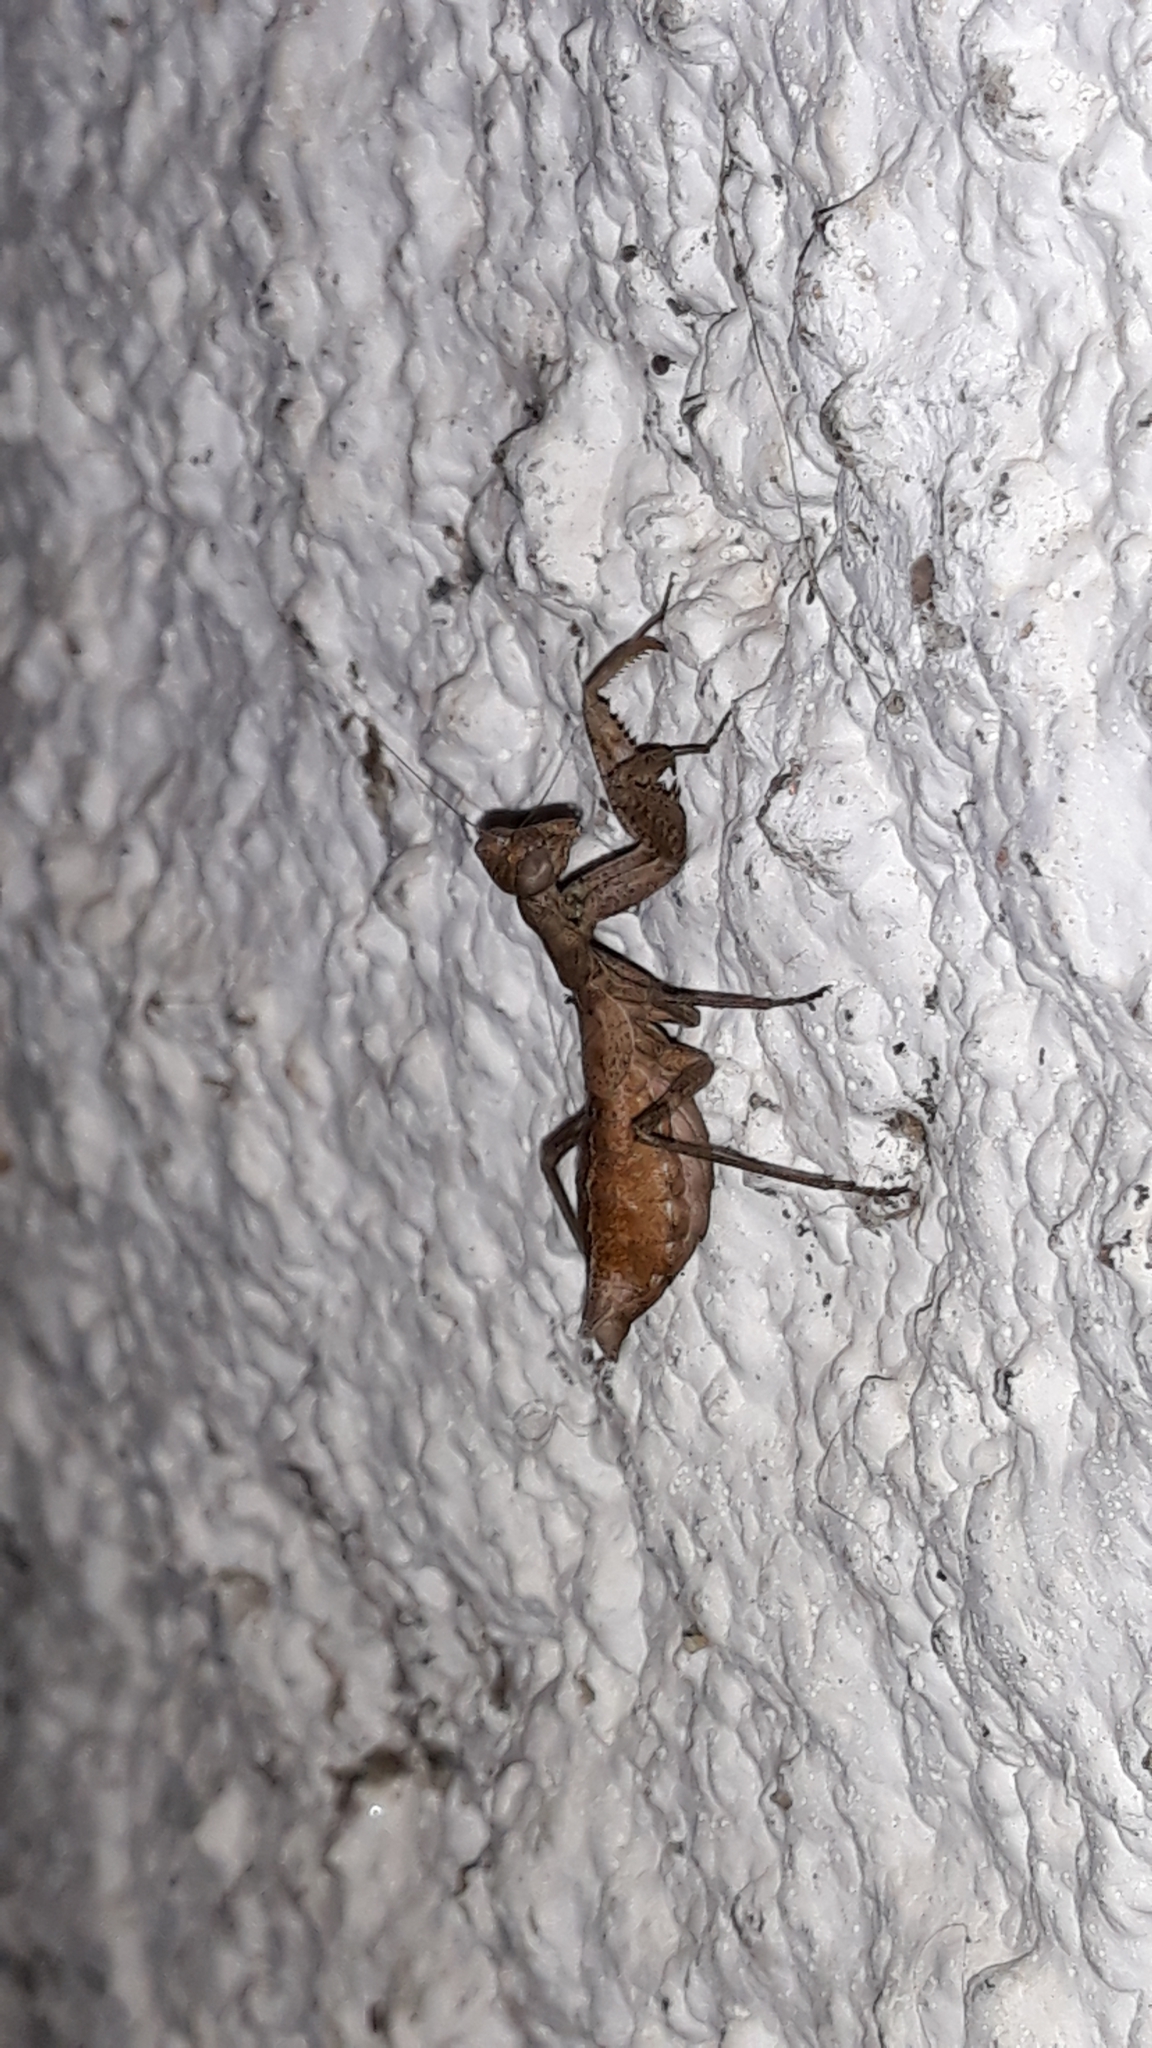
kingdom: Animalia
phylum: Arthropoda
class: Insecta
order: Mantodea
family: Amelidae
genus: Ameles
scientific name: Ameles spallanzania
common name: European dwarf mantis
